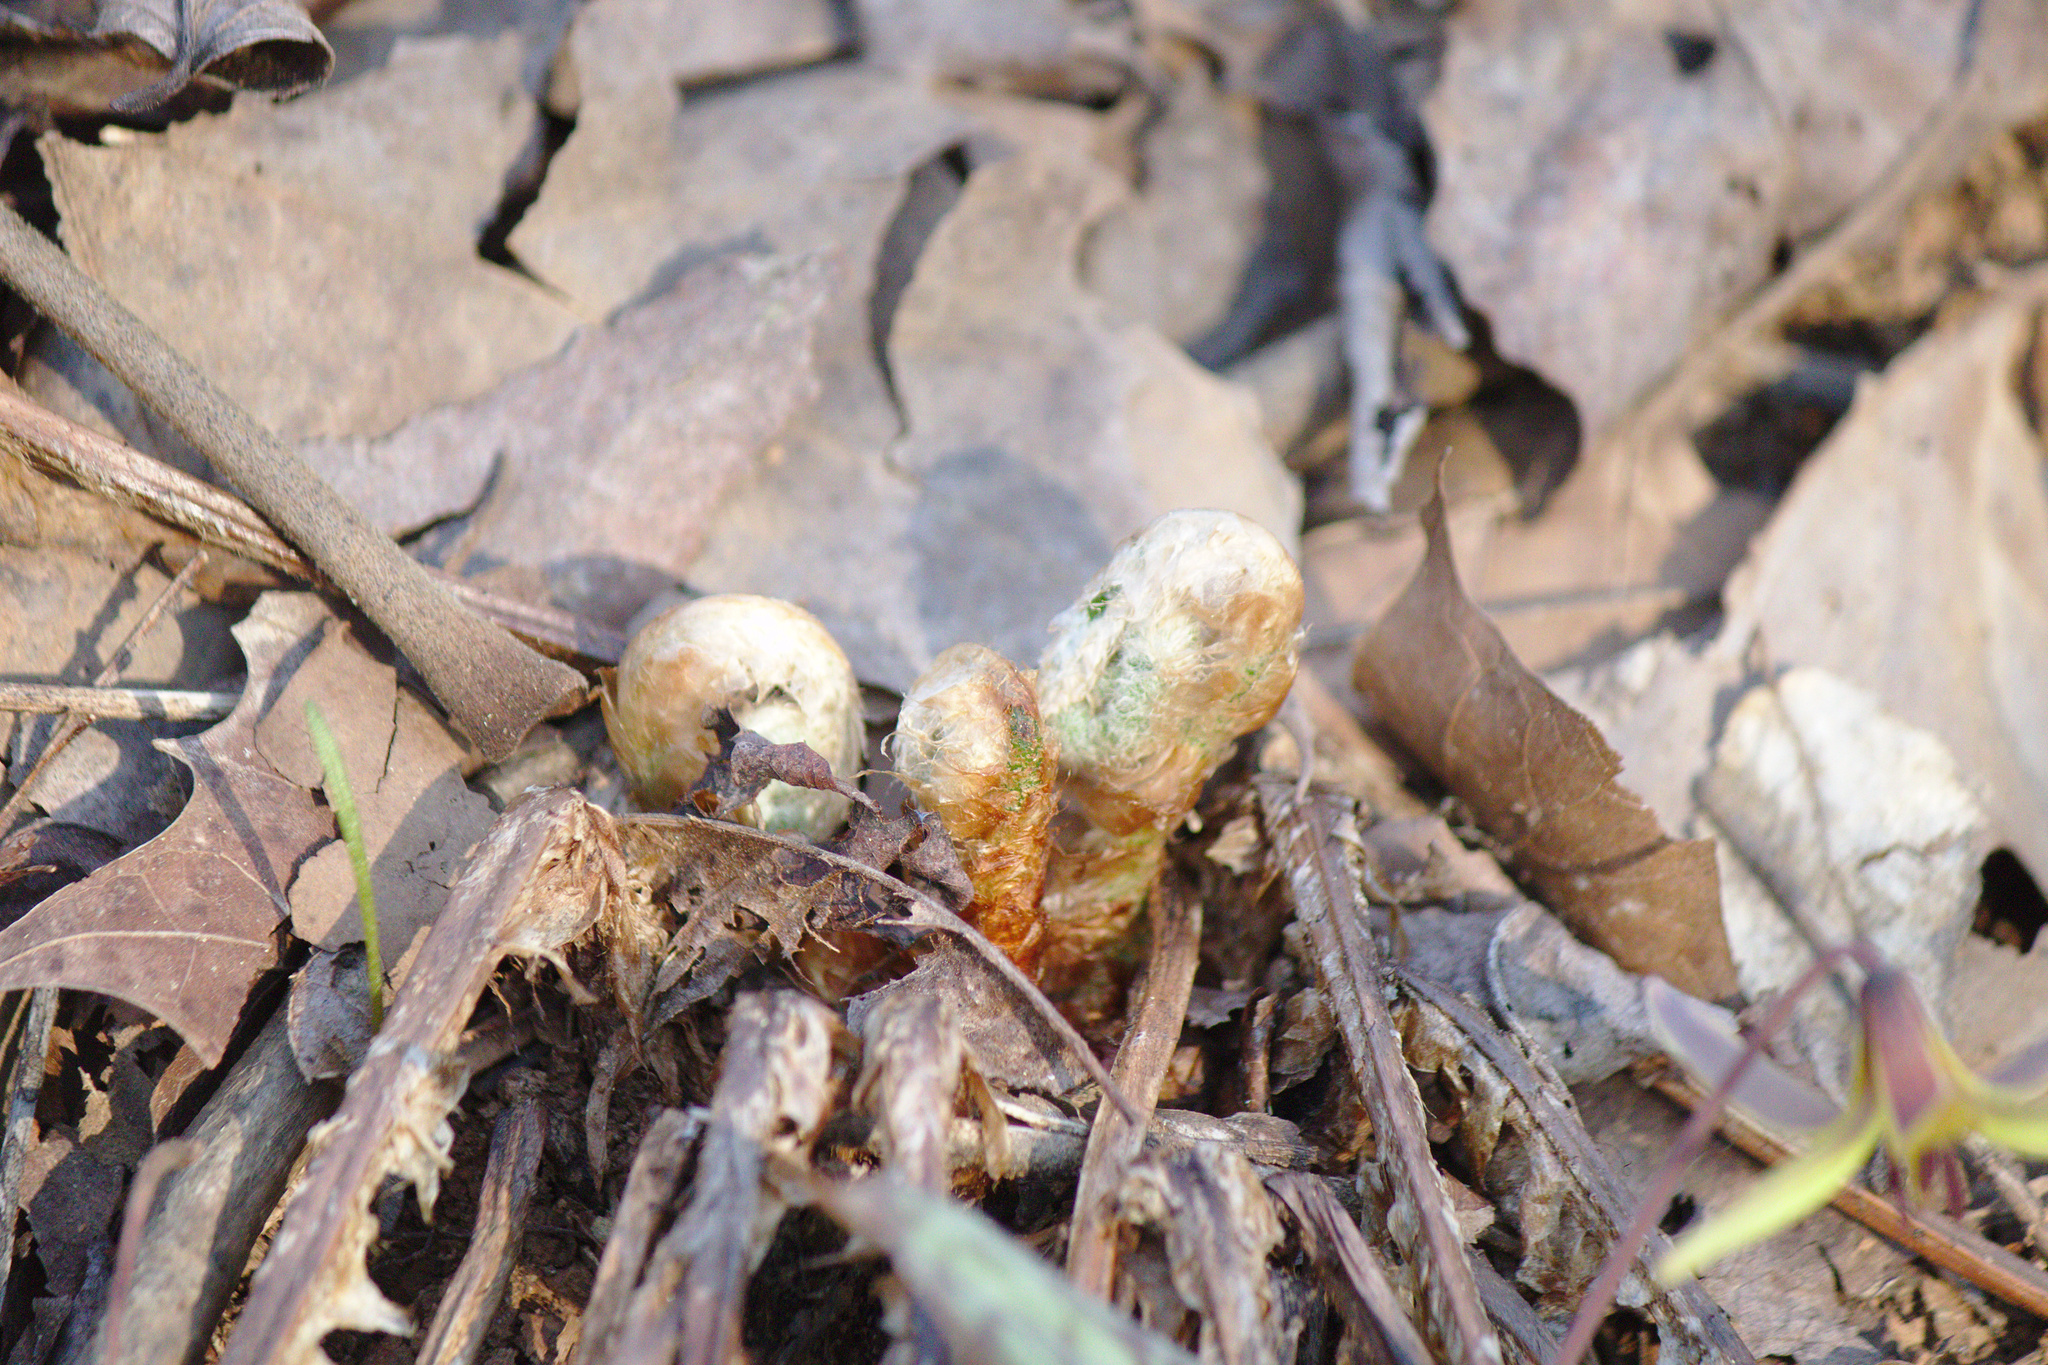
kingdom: Plantae
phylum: Tracheophyta
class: Polypodiopsida
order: Polypodiales
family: Dryopteridaceae
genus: Polystichum
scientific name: Polystichum acrostichoides
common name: Christmas fern
